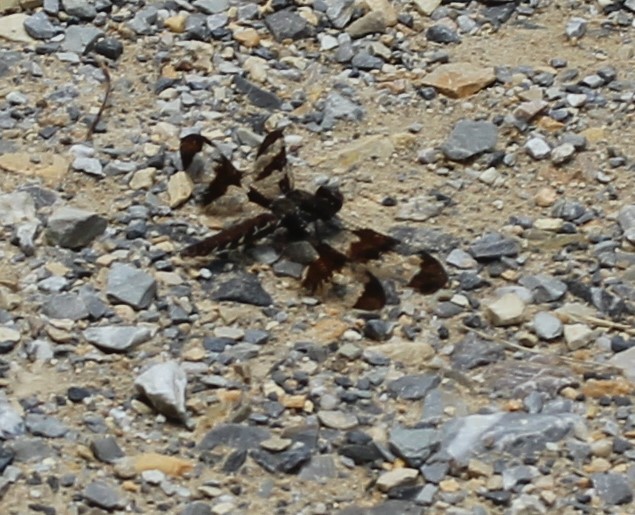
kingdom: Animalia
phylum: Arthropoda
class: Insecta
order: Odonata
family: Libellulidae
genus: Plathemis
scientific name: Plathemis lydia
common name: Common whitetail
